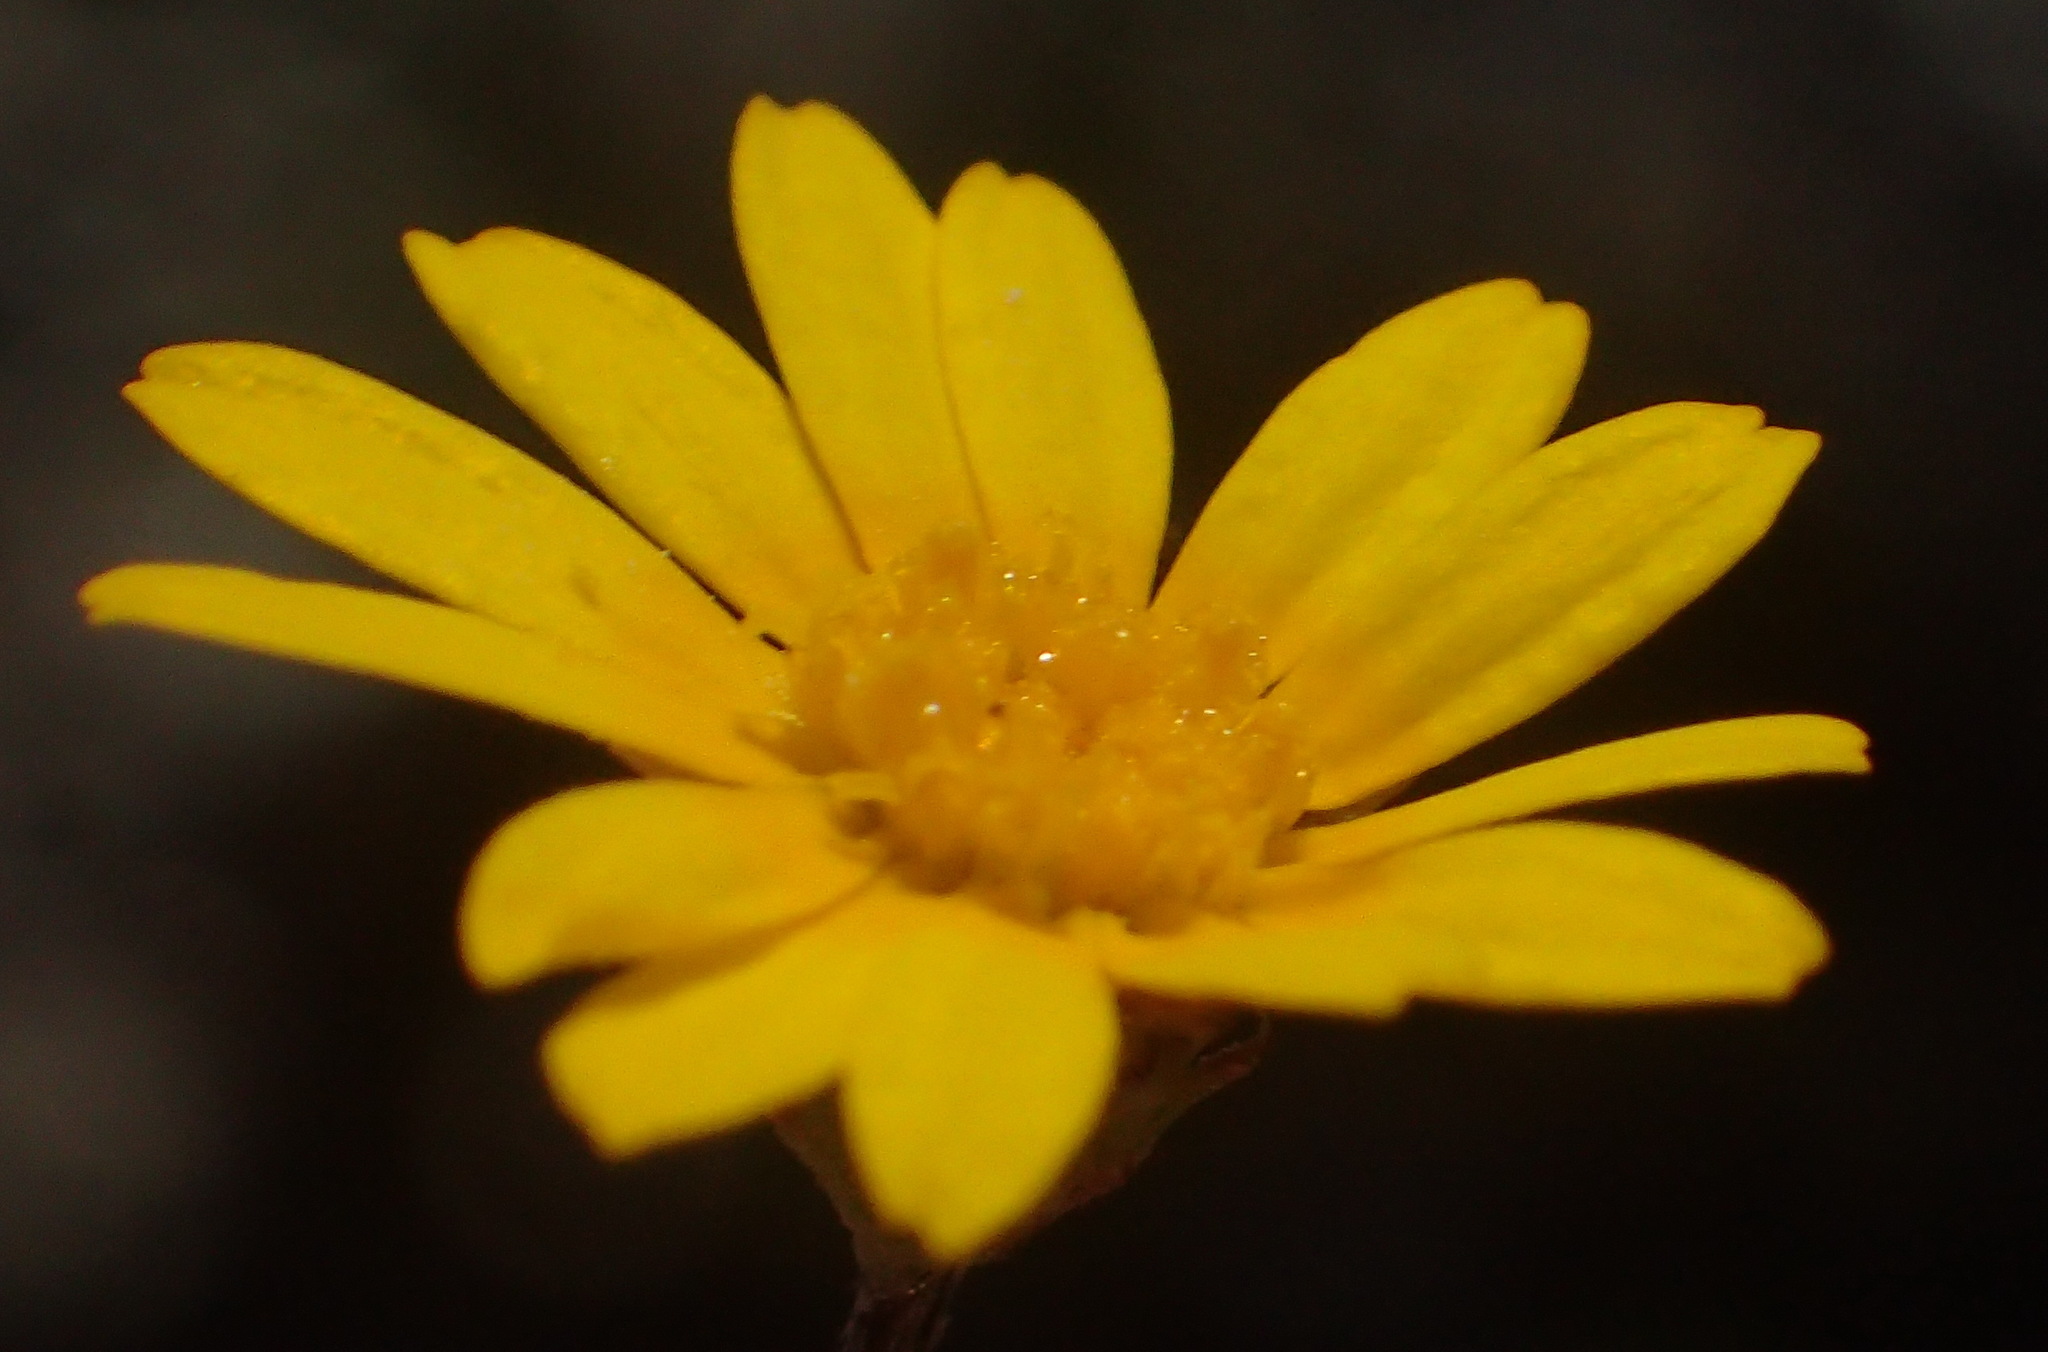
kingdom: Plantae
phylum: Tracheophyta
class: Magnoliopsida
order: Asterales
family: Asteraceae
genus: Ursinia
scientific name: Ursinia trifida
